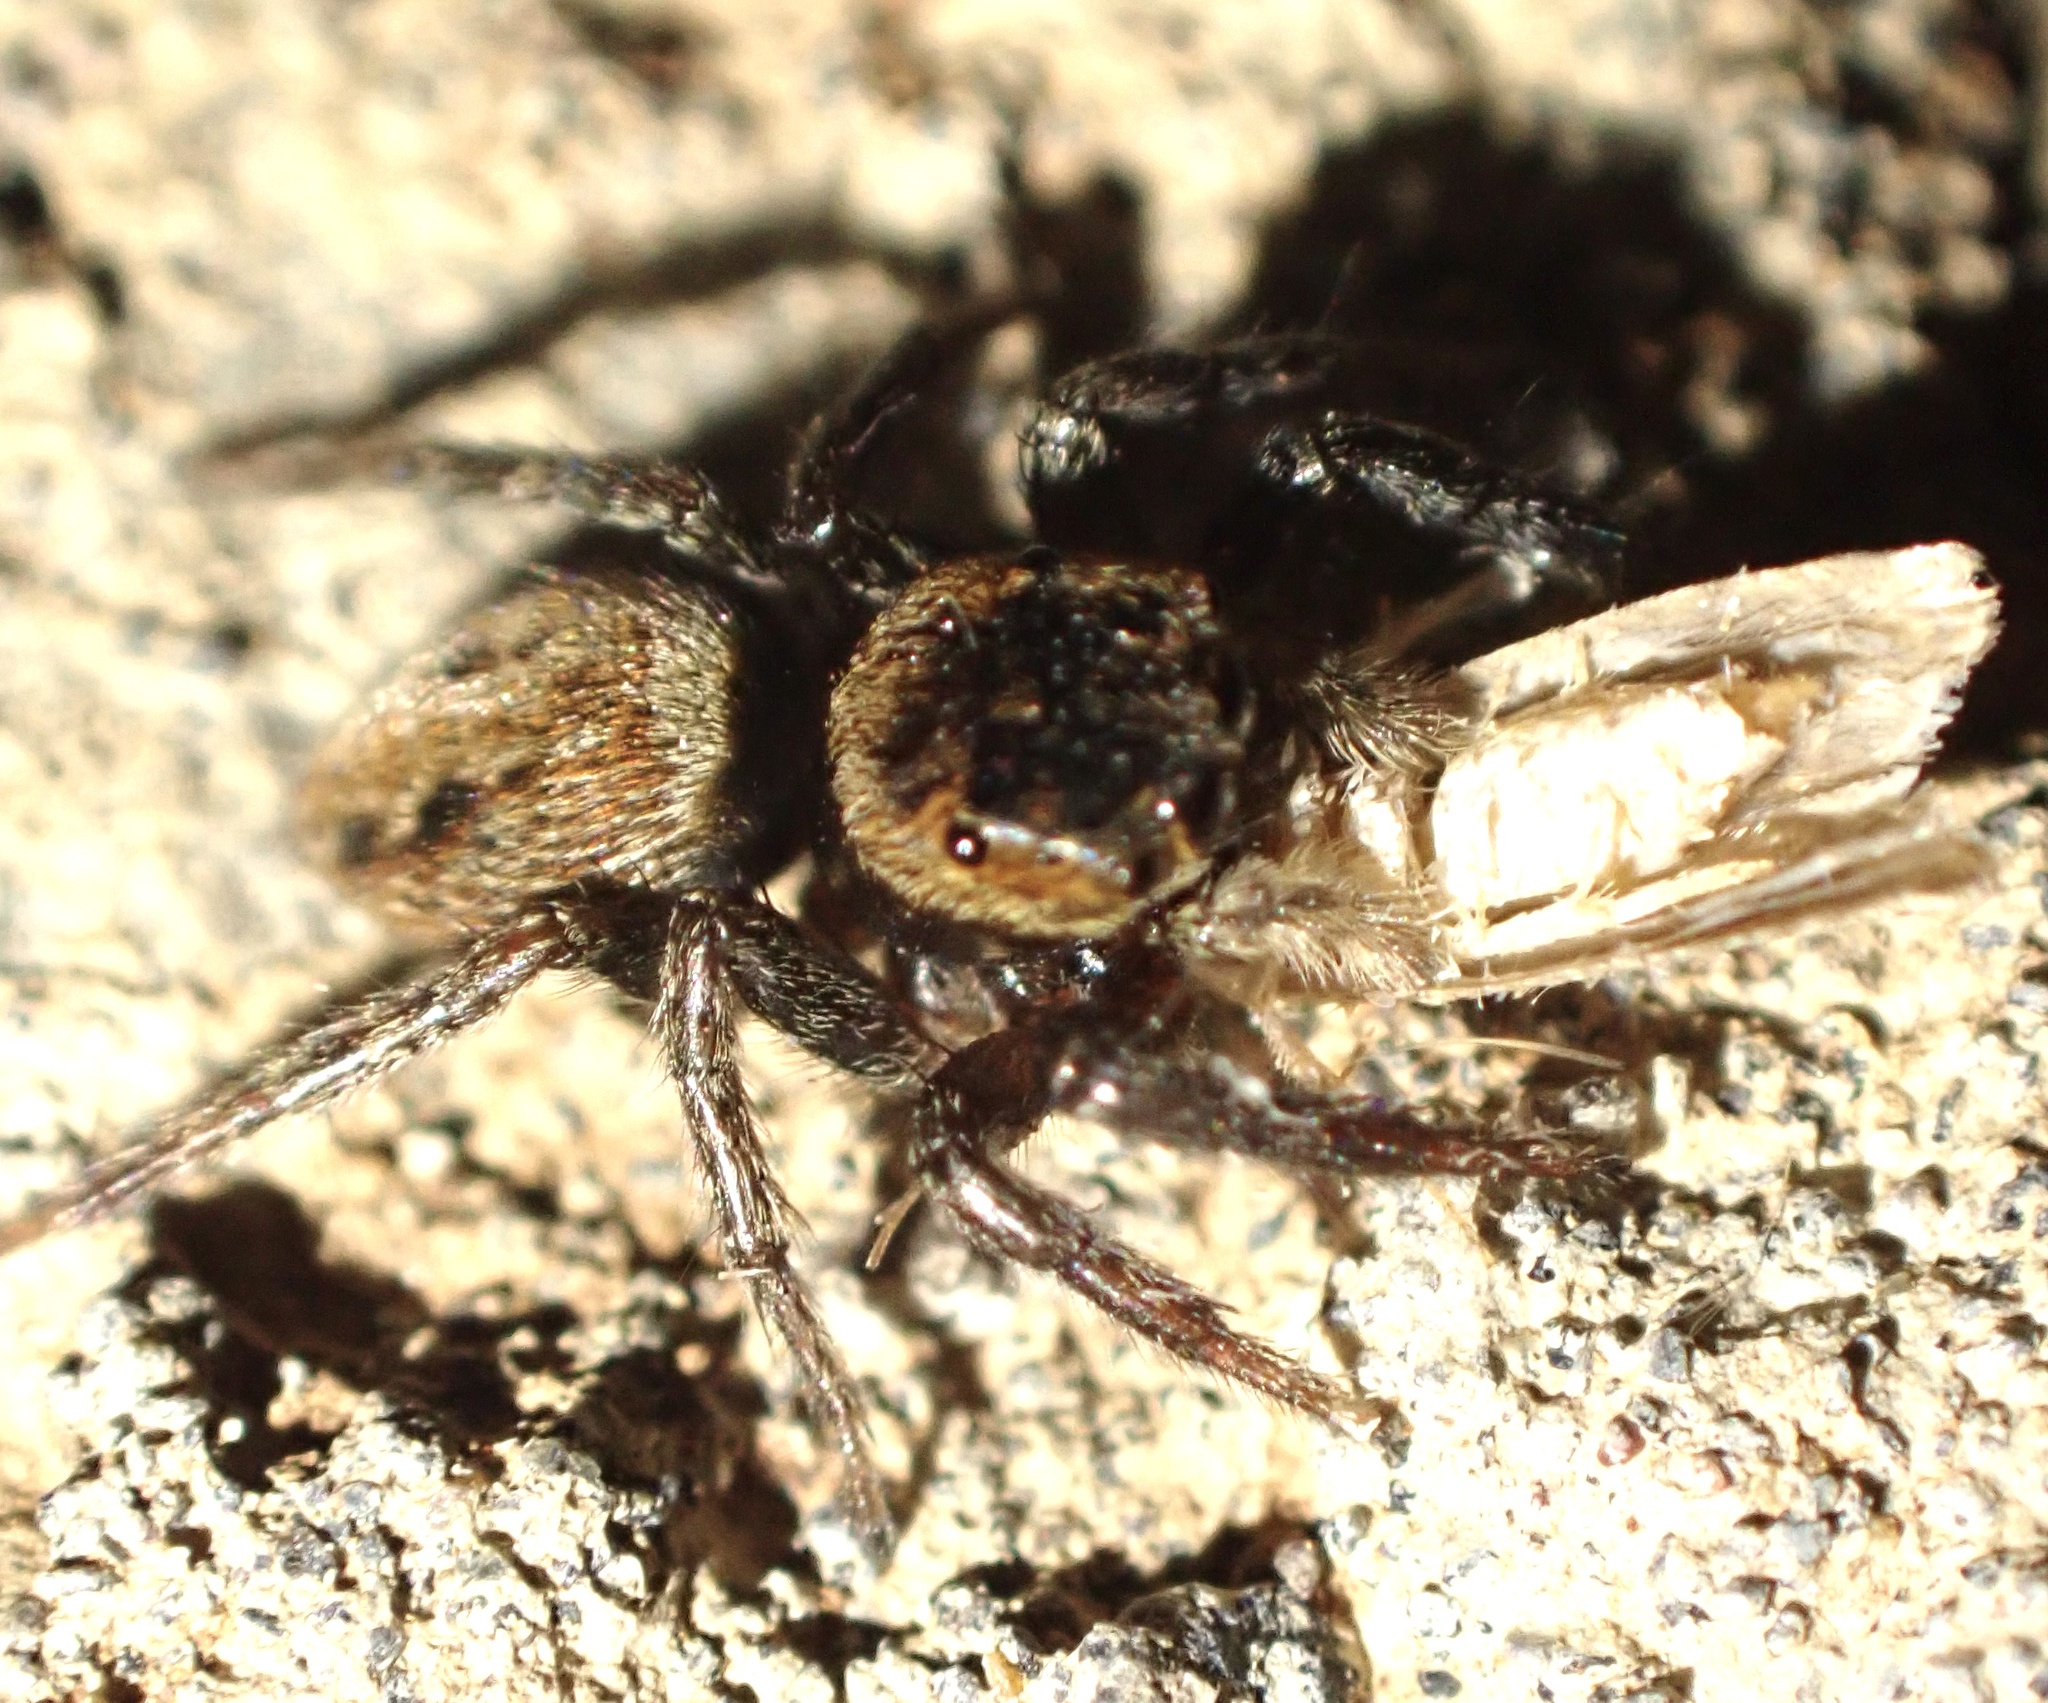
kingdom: Animalia
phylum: Arthropoda
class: Arachnida
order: Araneae
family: Salticidae
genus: Hasarius
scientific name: Hasarius adansoni
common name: Jumping spider
